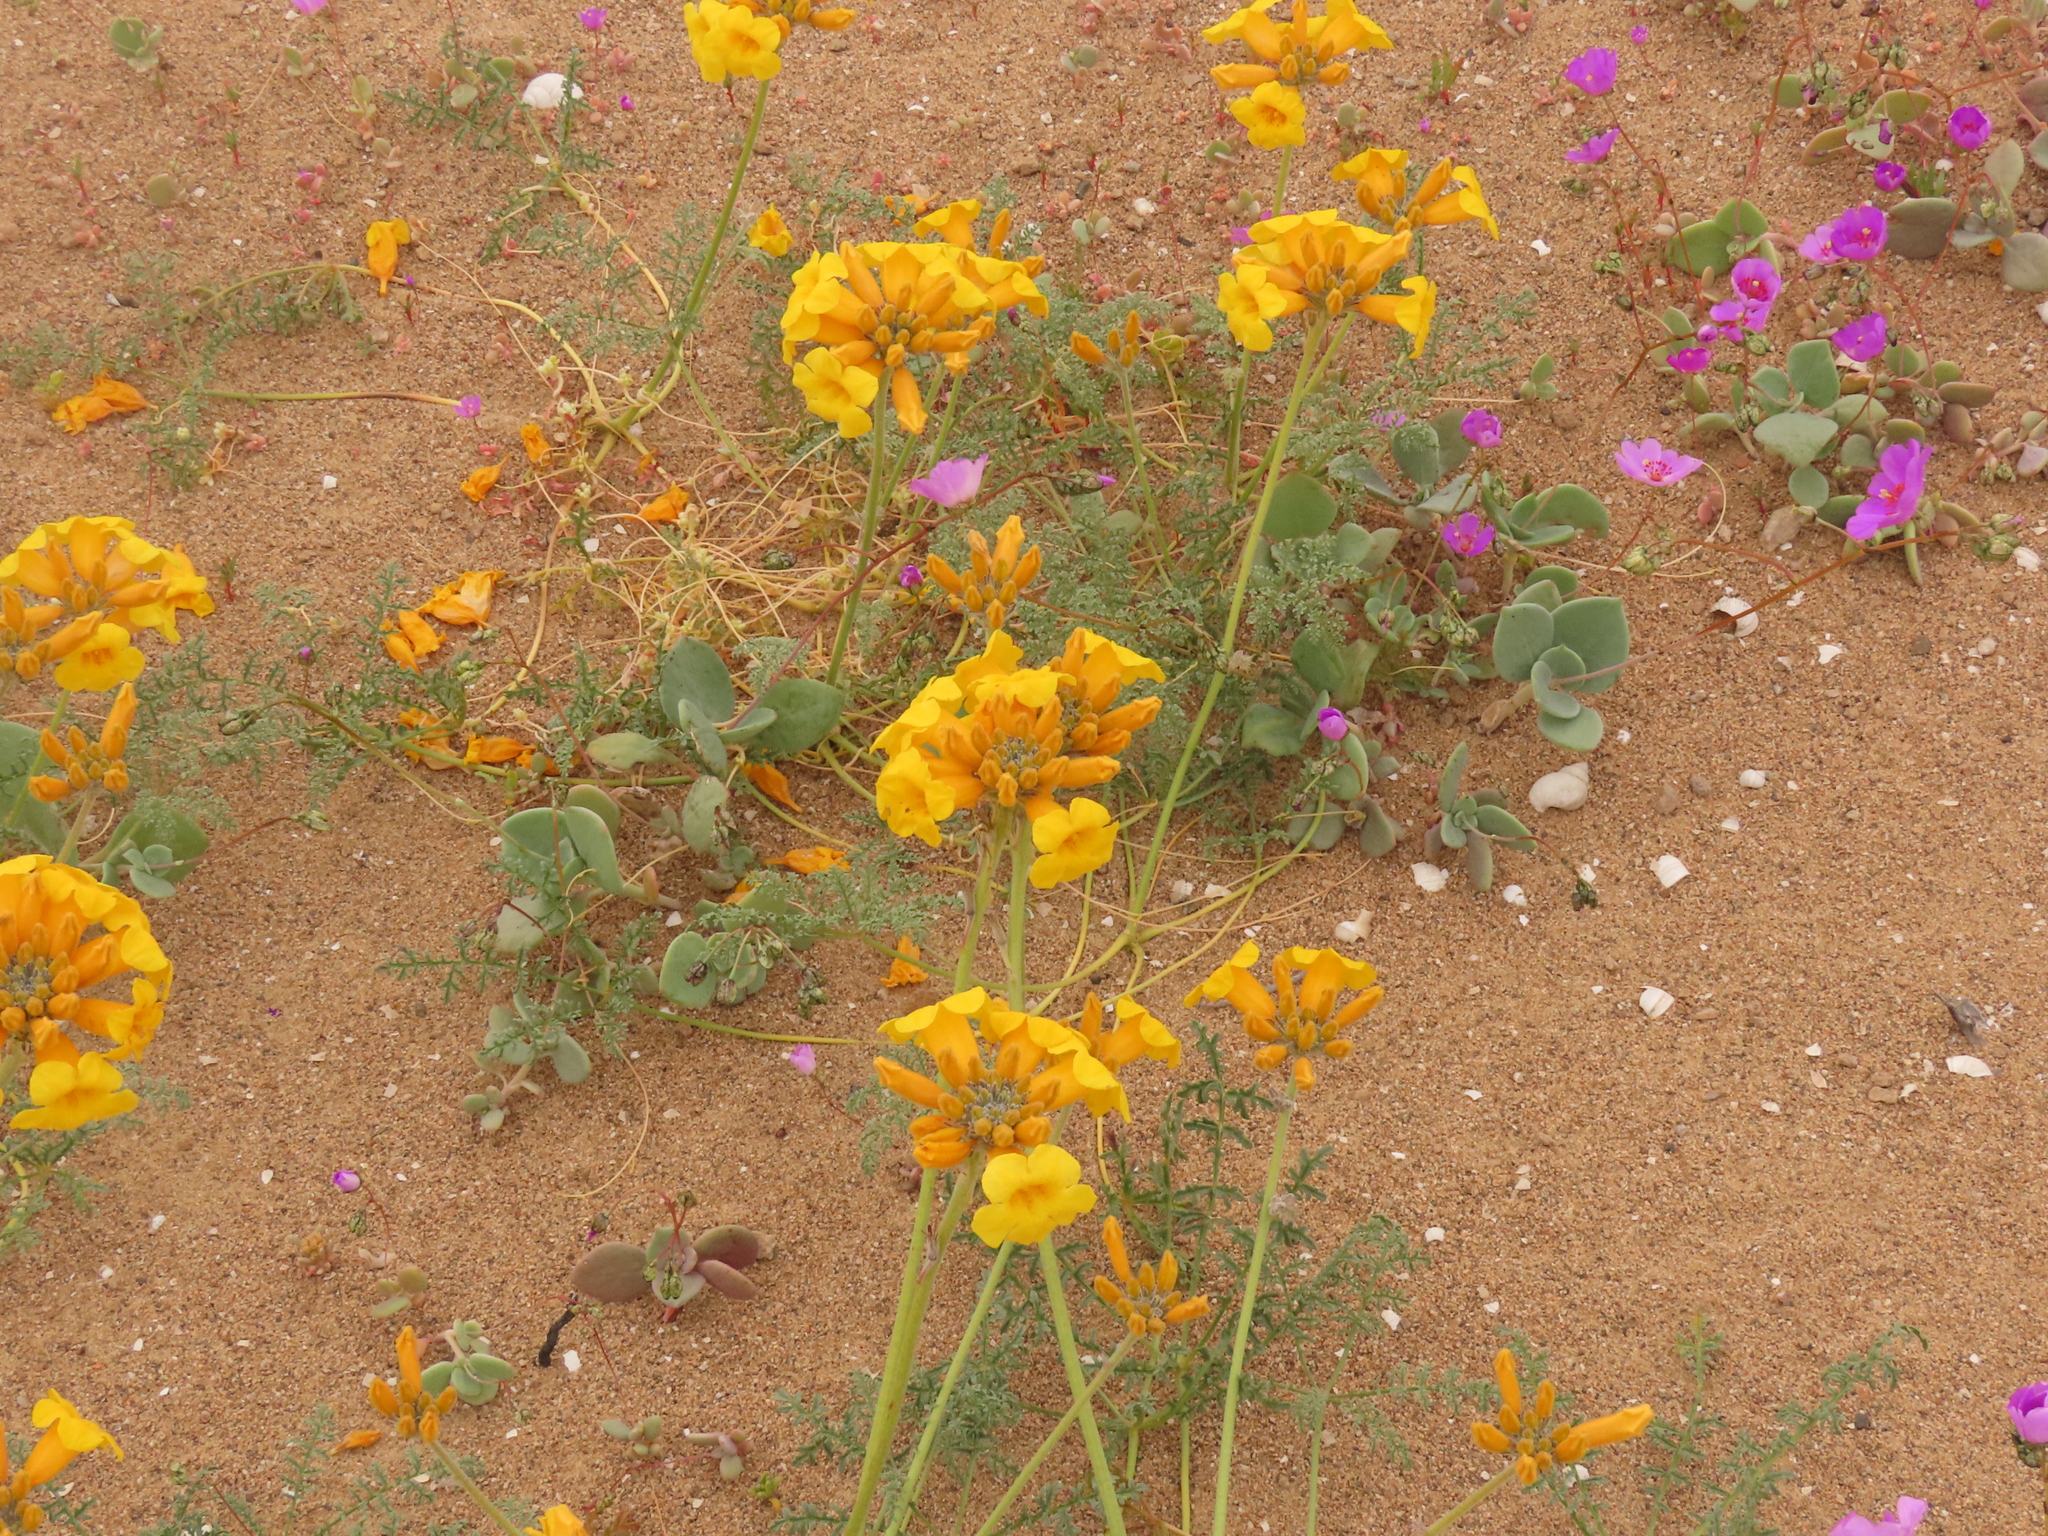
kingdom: Plantae
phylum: Tracheophyta
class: Magnoliopsida
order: Lamiales
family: Bignoniaceae
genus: Argylia
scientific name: Argylia radiata
